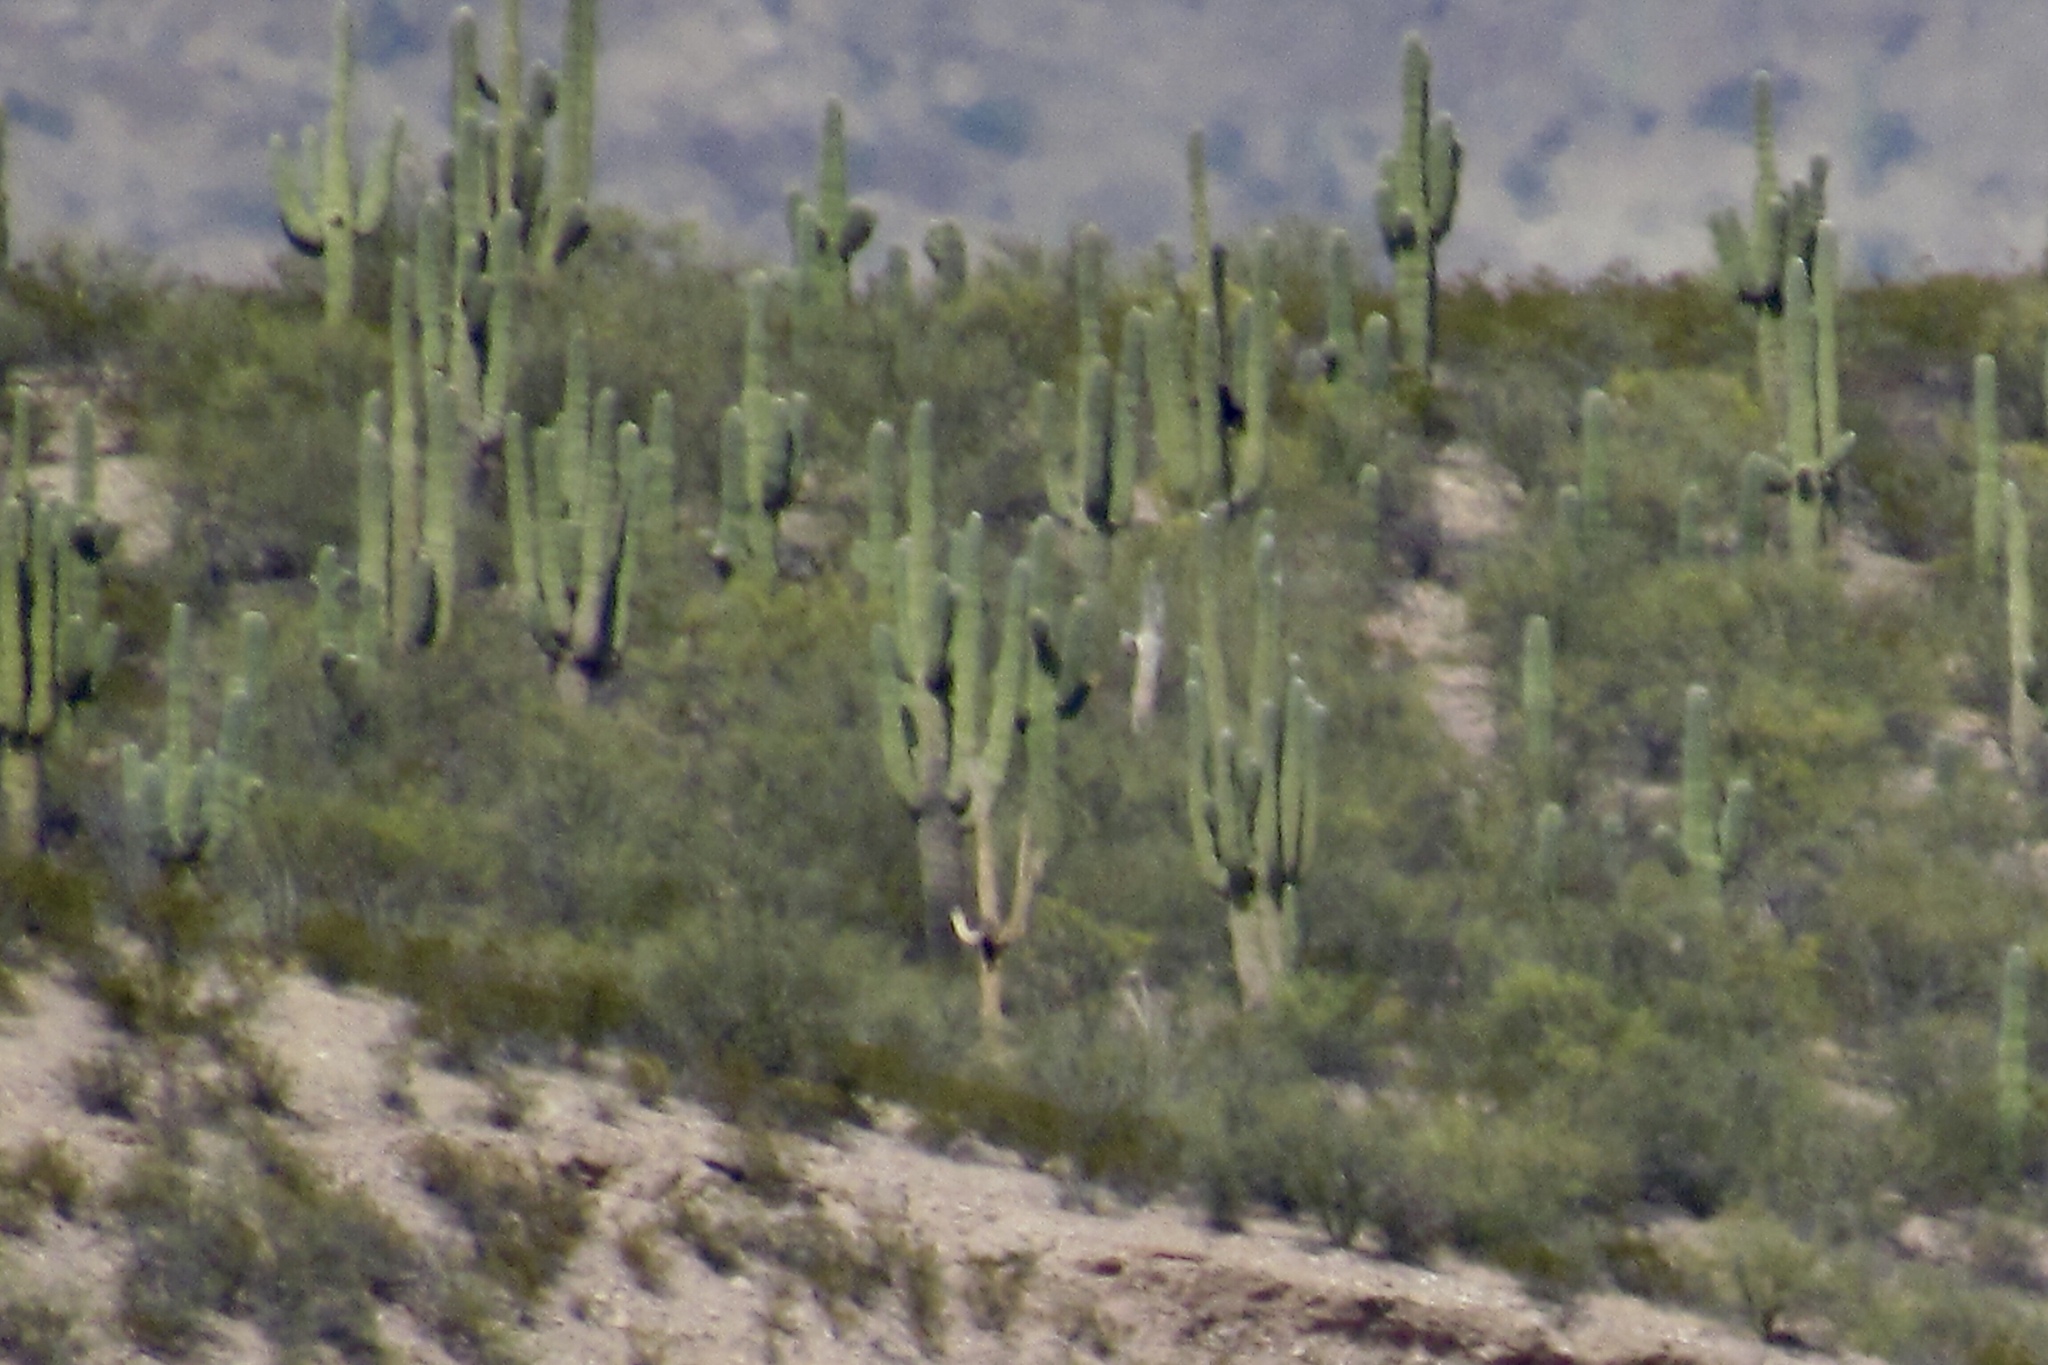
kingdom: Plantae
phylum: Tracheophyta
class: Magnoliopsida
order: Caryophyllales
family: Cactaceae
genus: Carnegiea
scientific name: Carnegiea gigantea
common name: Saguaro
